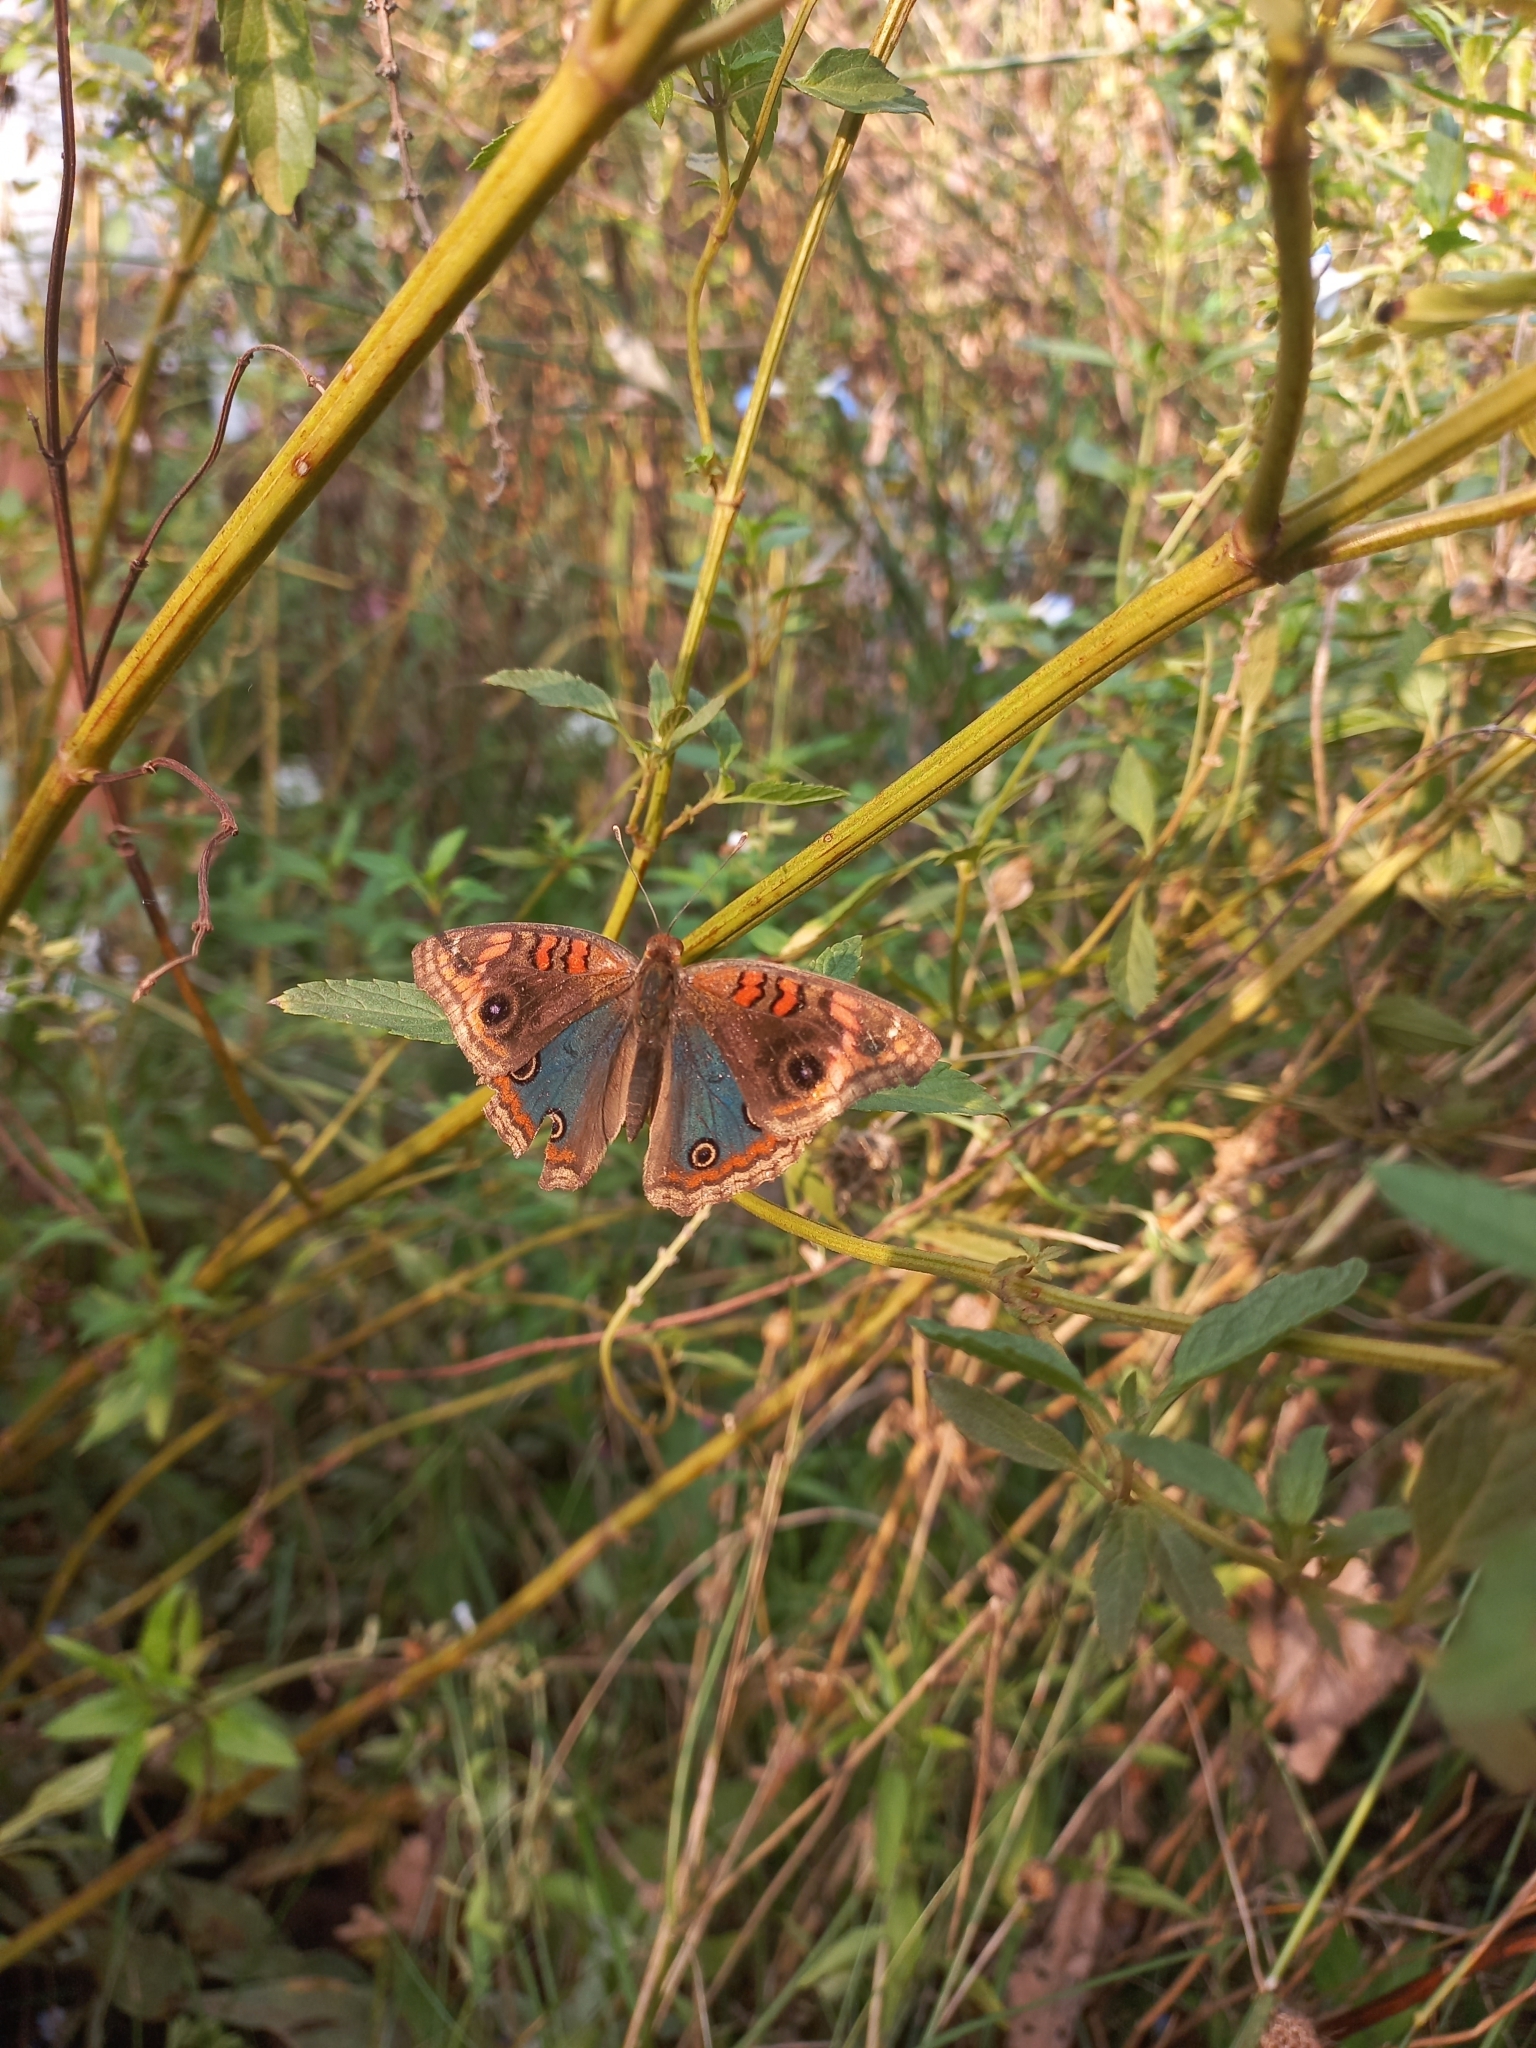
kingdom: Animalia
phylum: Arthropoda
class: Insecta
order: Lepidoptera
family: Nymphalidae
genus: Junonia
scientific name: Junonia lavinia
